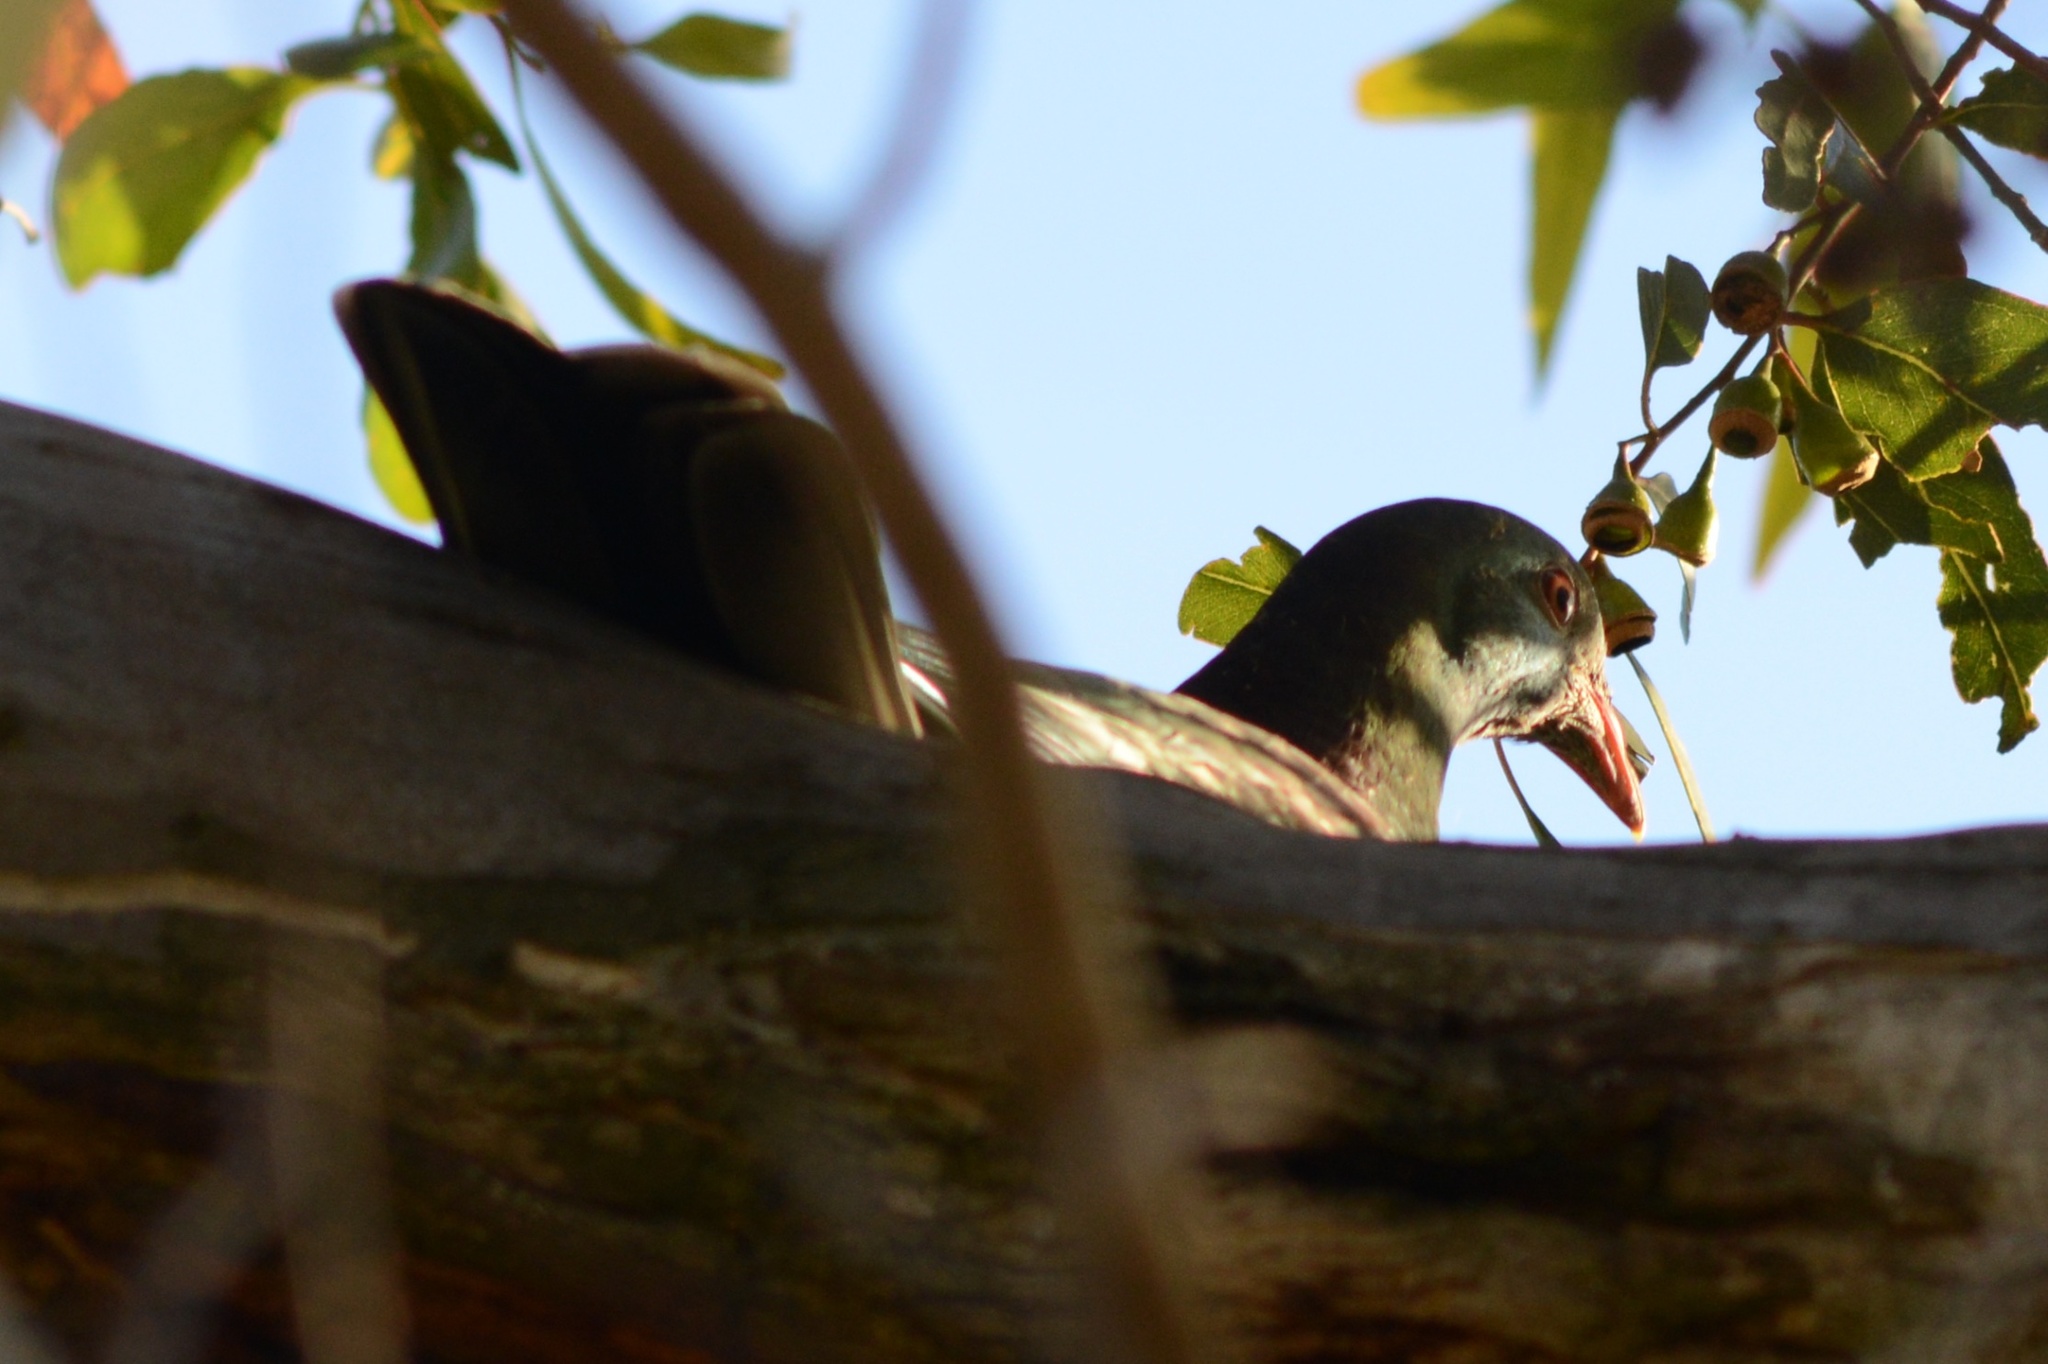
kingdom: Animalia
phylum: Chordata
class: Aves
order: Columbiformes
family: Columbidae
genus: Hemiphaga
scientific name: Hemiphaga novaeseelandiae
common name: New zealand pigeon
